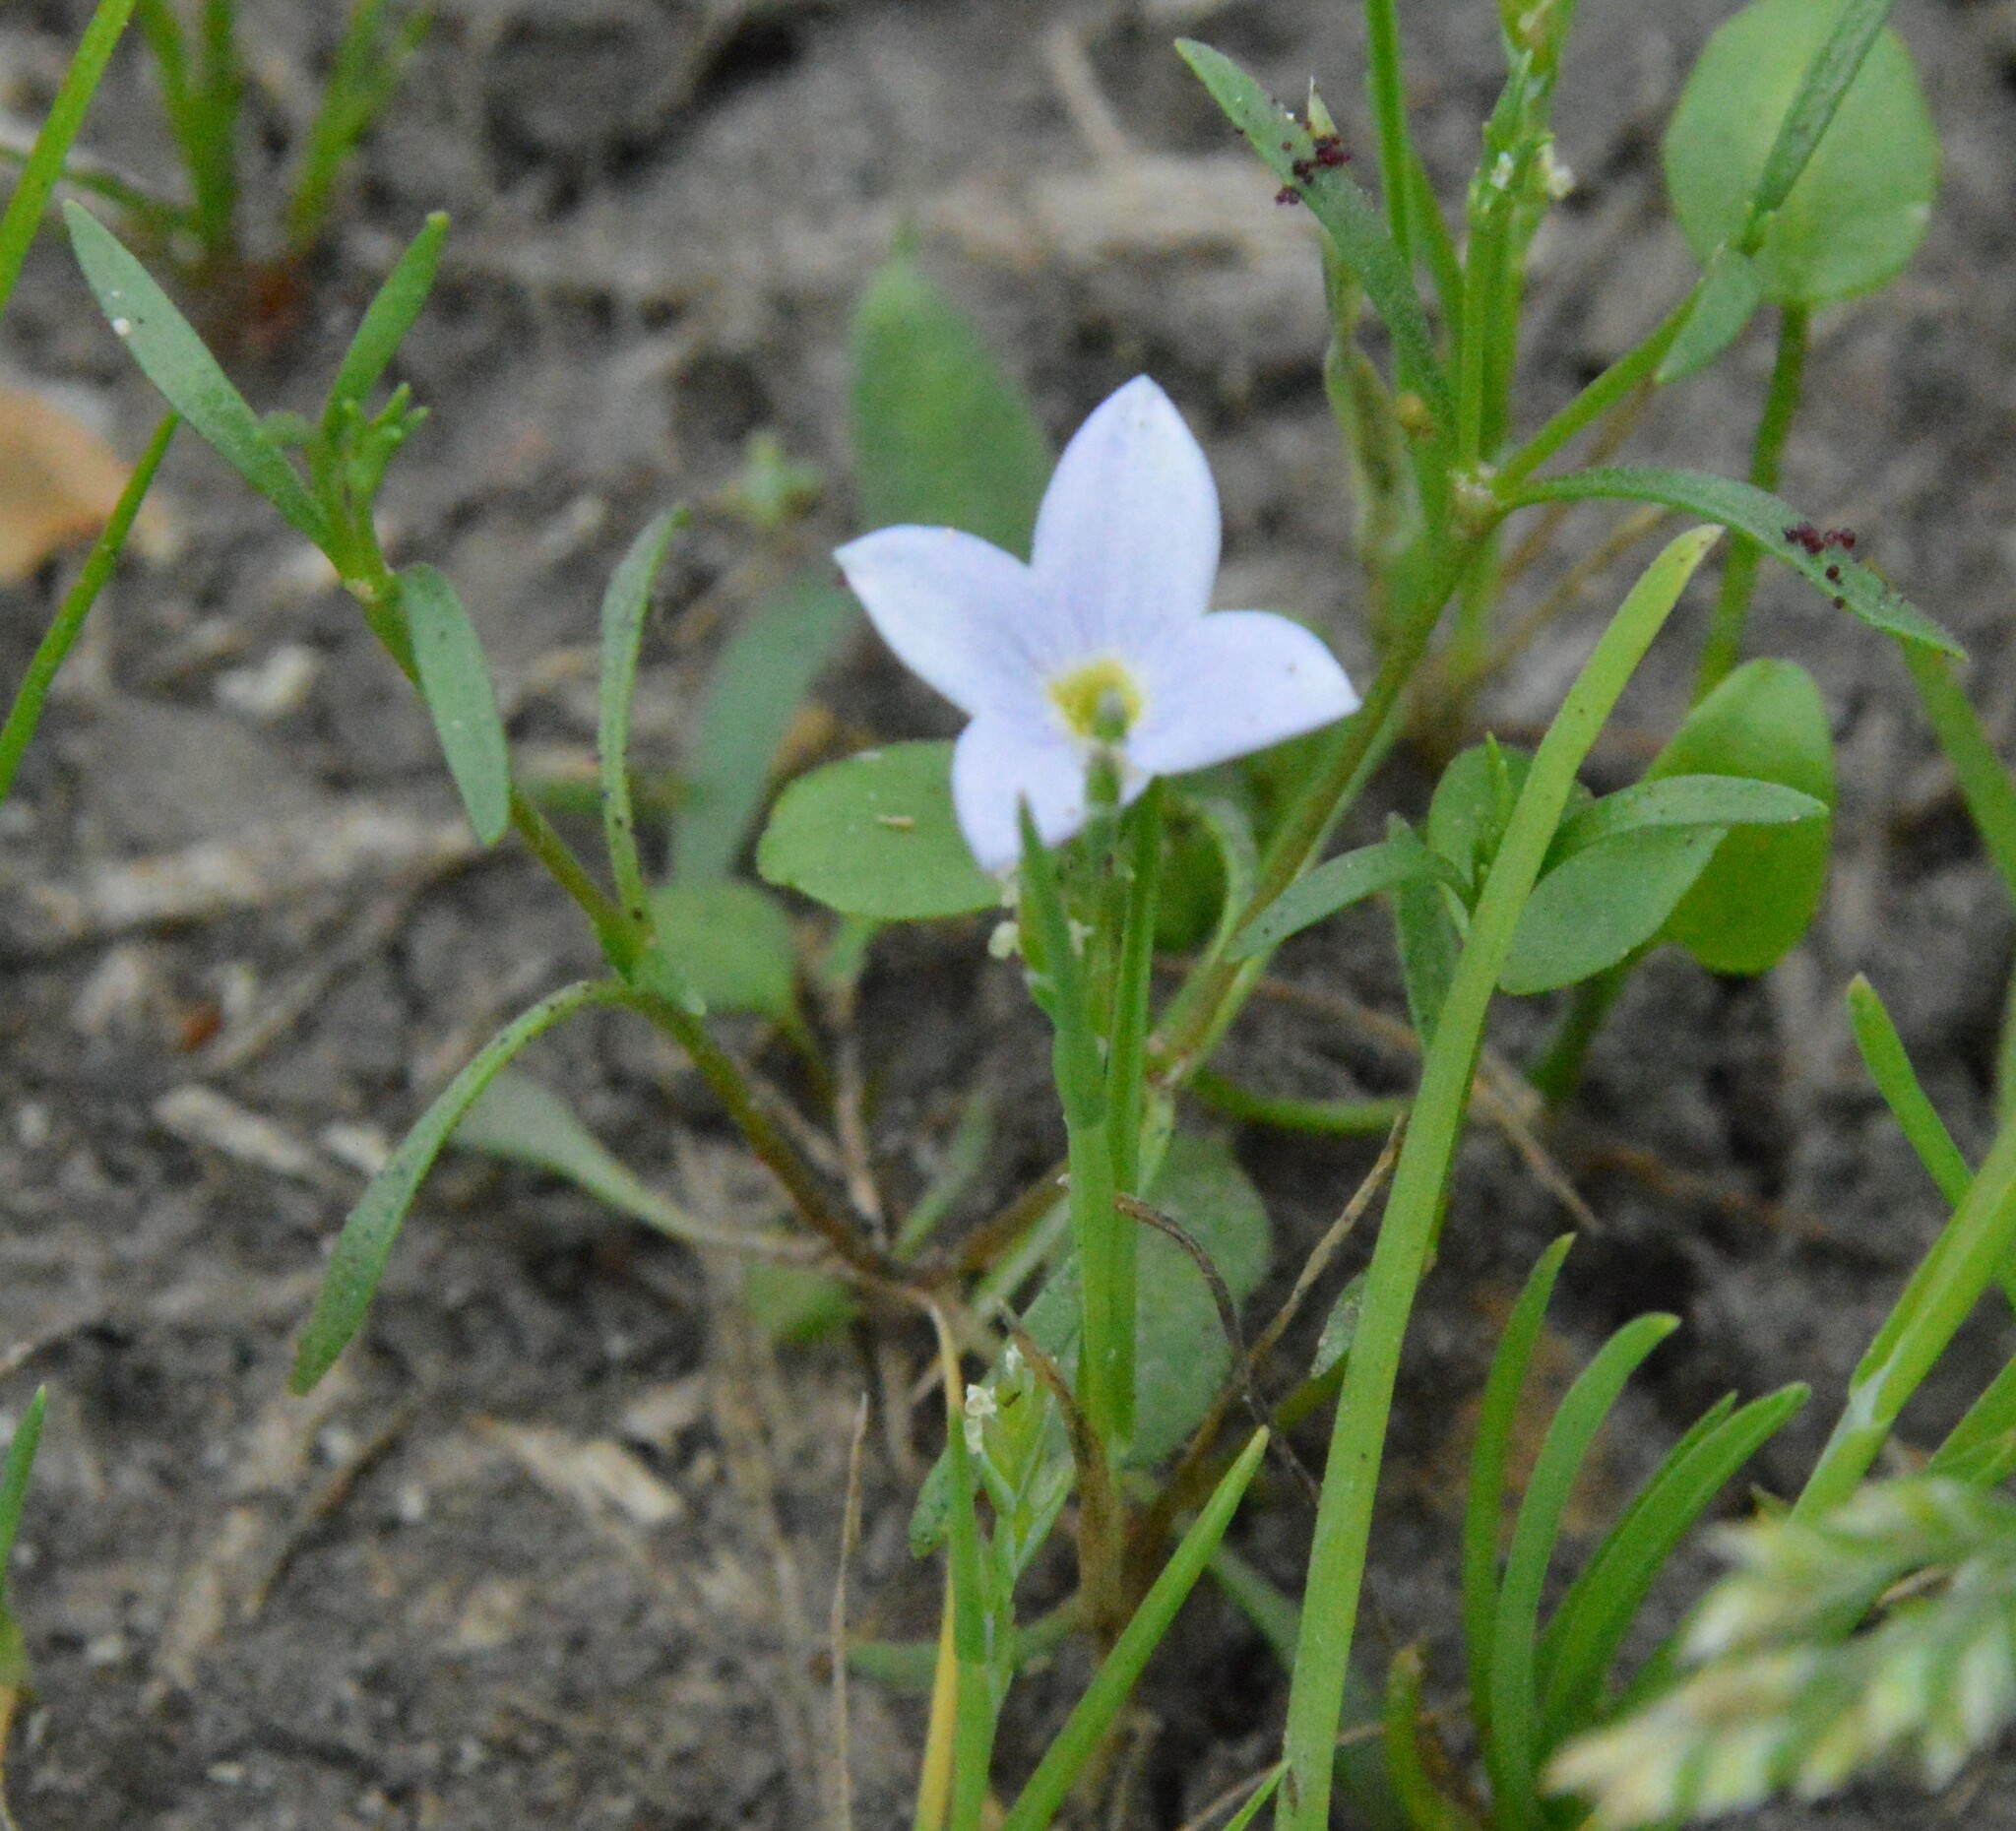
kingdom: Plantae
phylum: Tracheophyta
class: Magnoliopsida
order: Gentianales
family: Rubiaceae
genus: Houstonia
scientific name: Houstonia rosea
